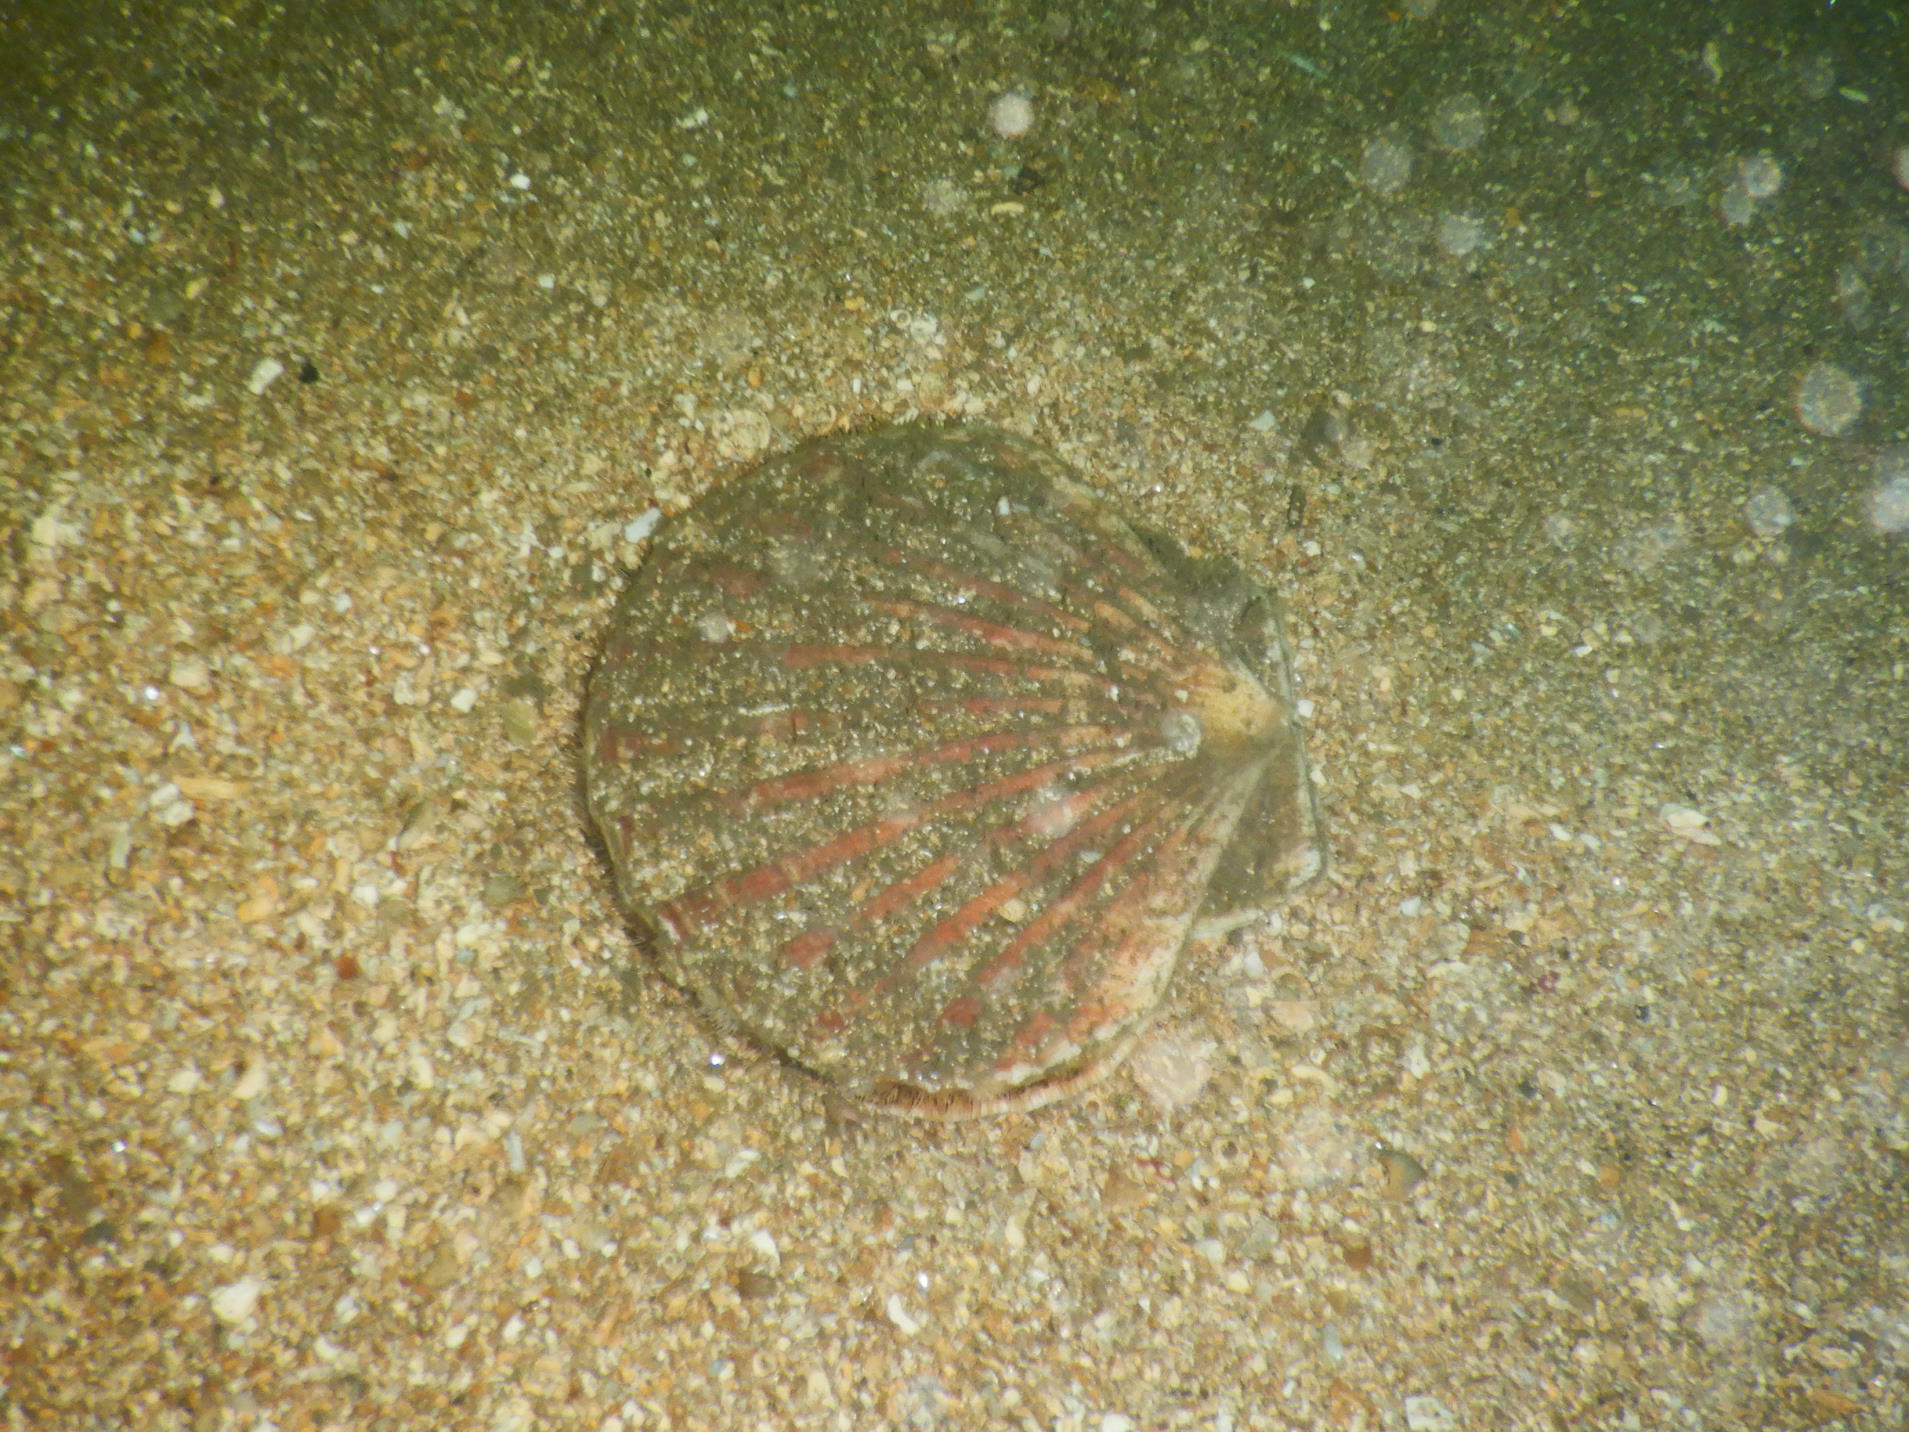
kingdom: Animalia
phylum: Mollusca
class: Bivalvia
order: Pectinida
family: Pectinidae
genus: Pecten
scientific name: Pecten maximus
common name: Great scallop
